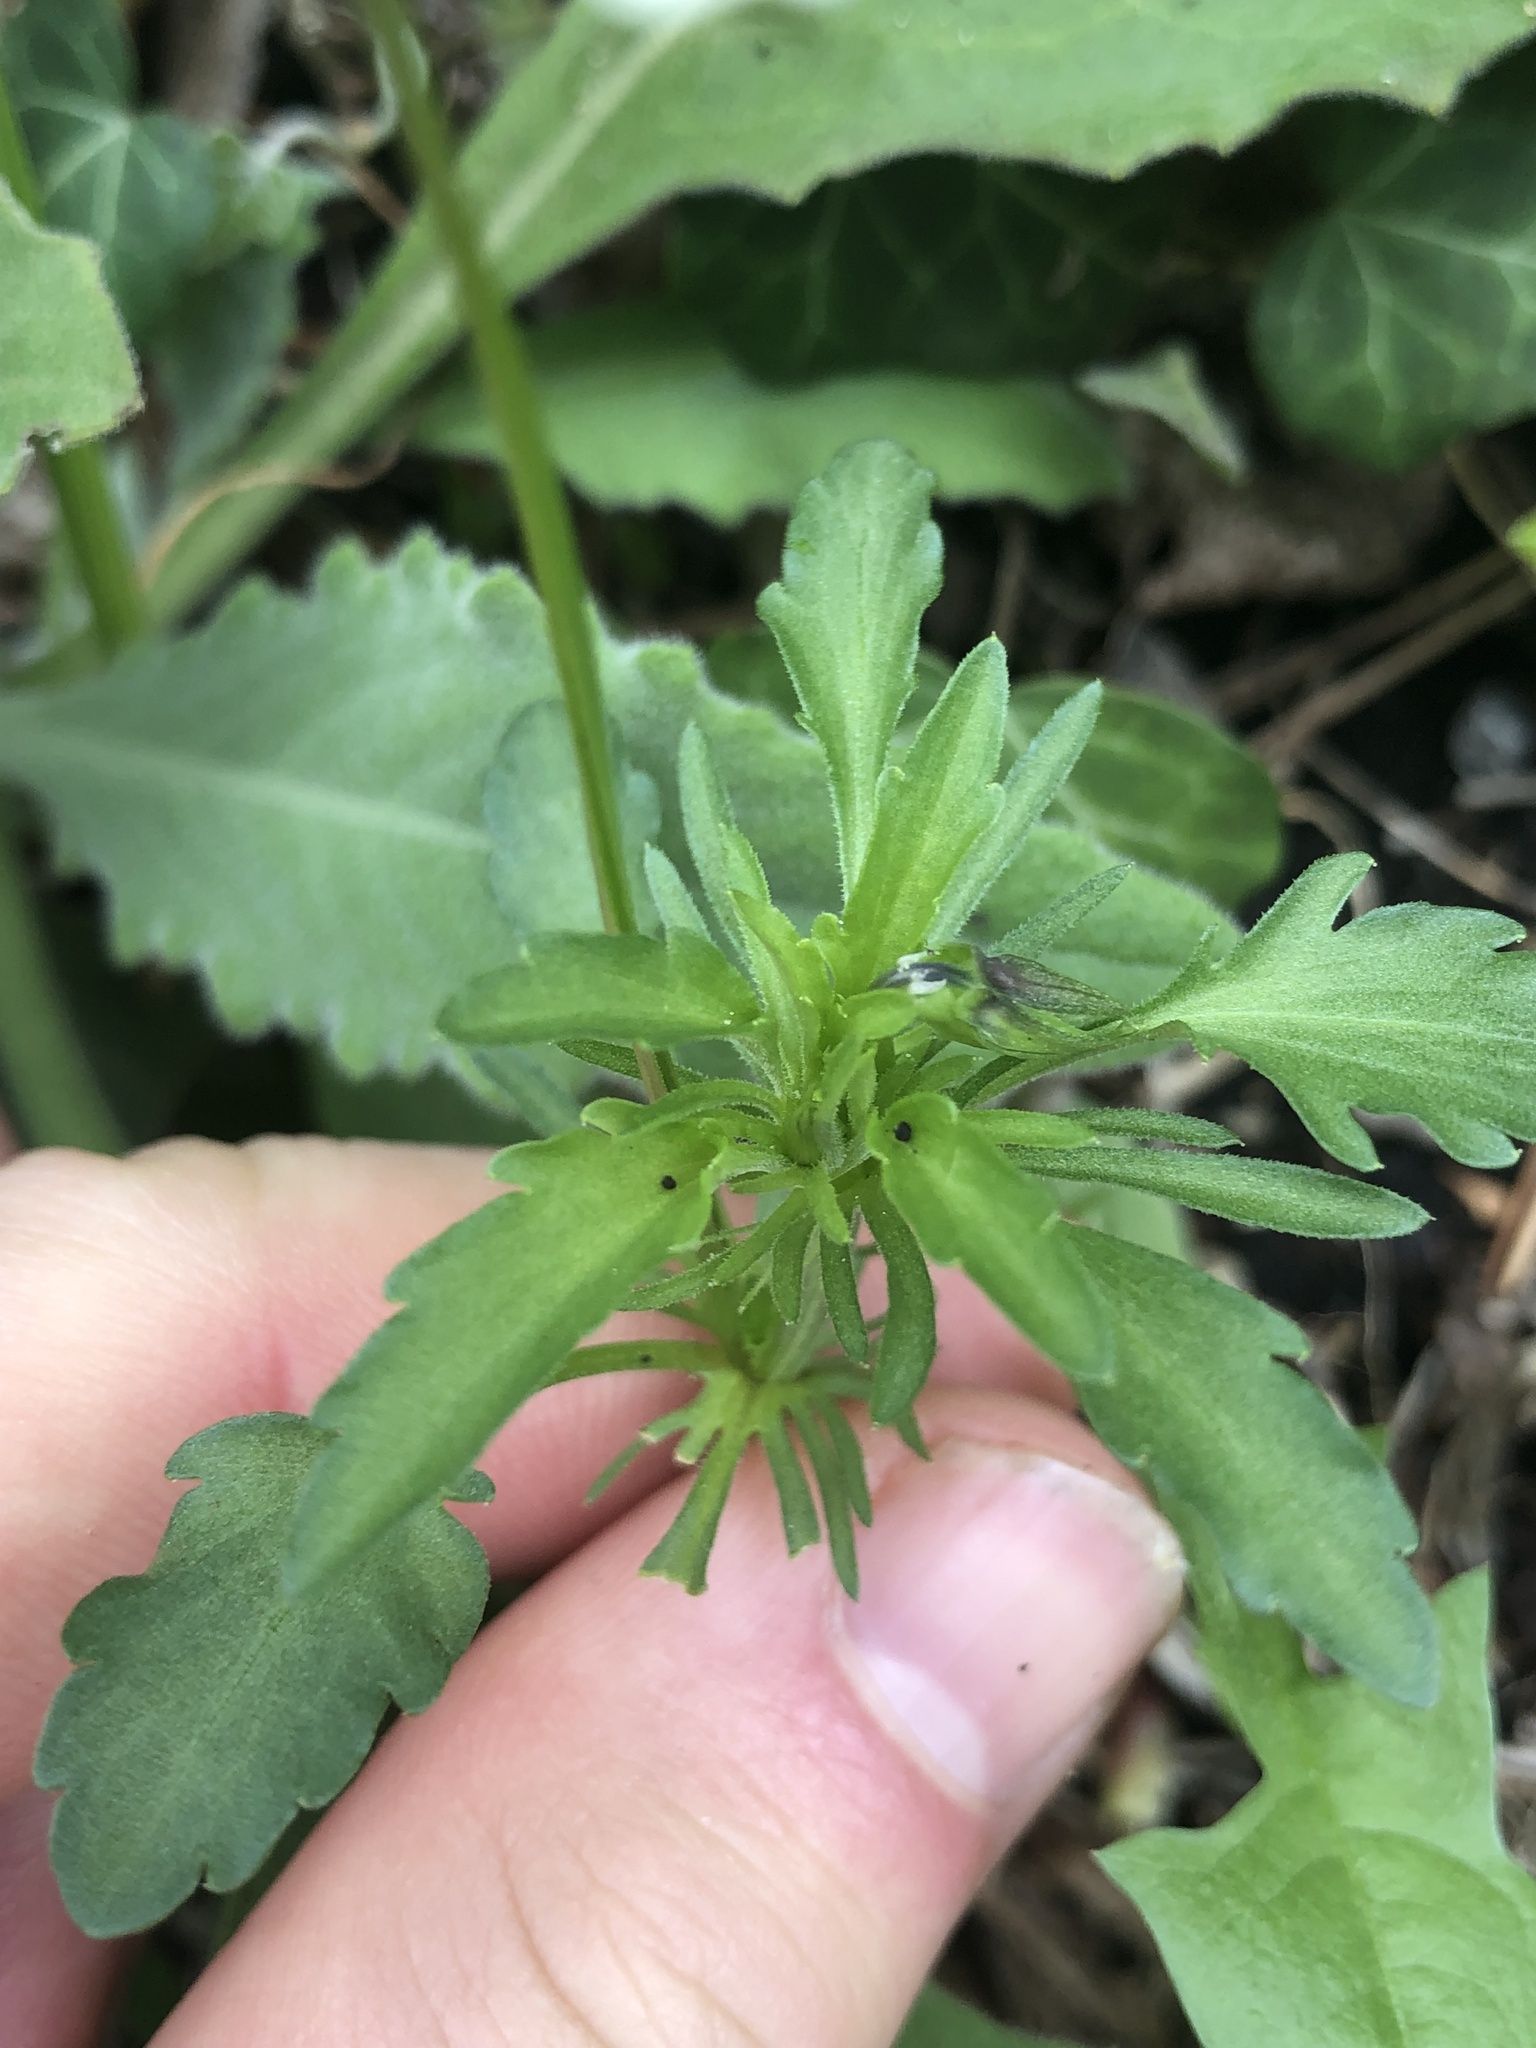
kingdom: Plantae
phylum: Tracheophyta
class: Magnoliopsida
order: Malpighiales
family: Violaceae
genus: Viola
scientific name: Viola arvensis
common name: Field pansy
